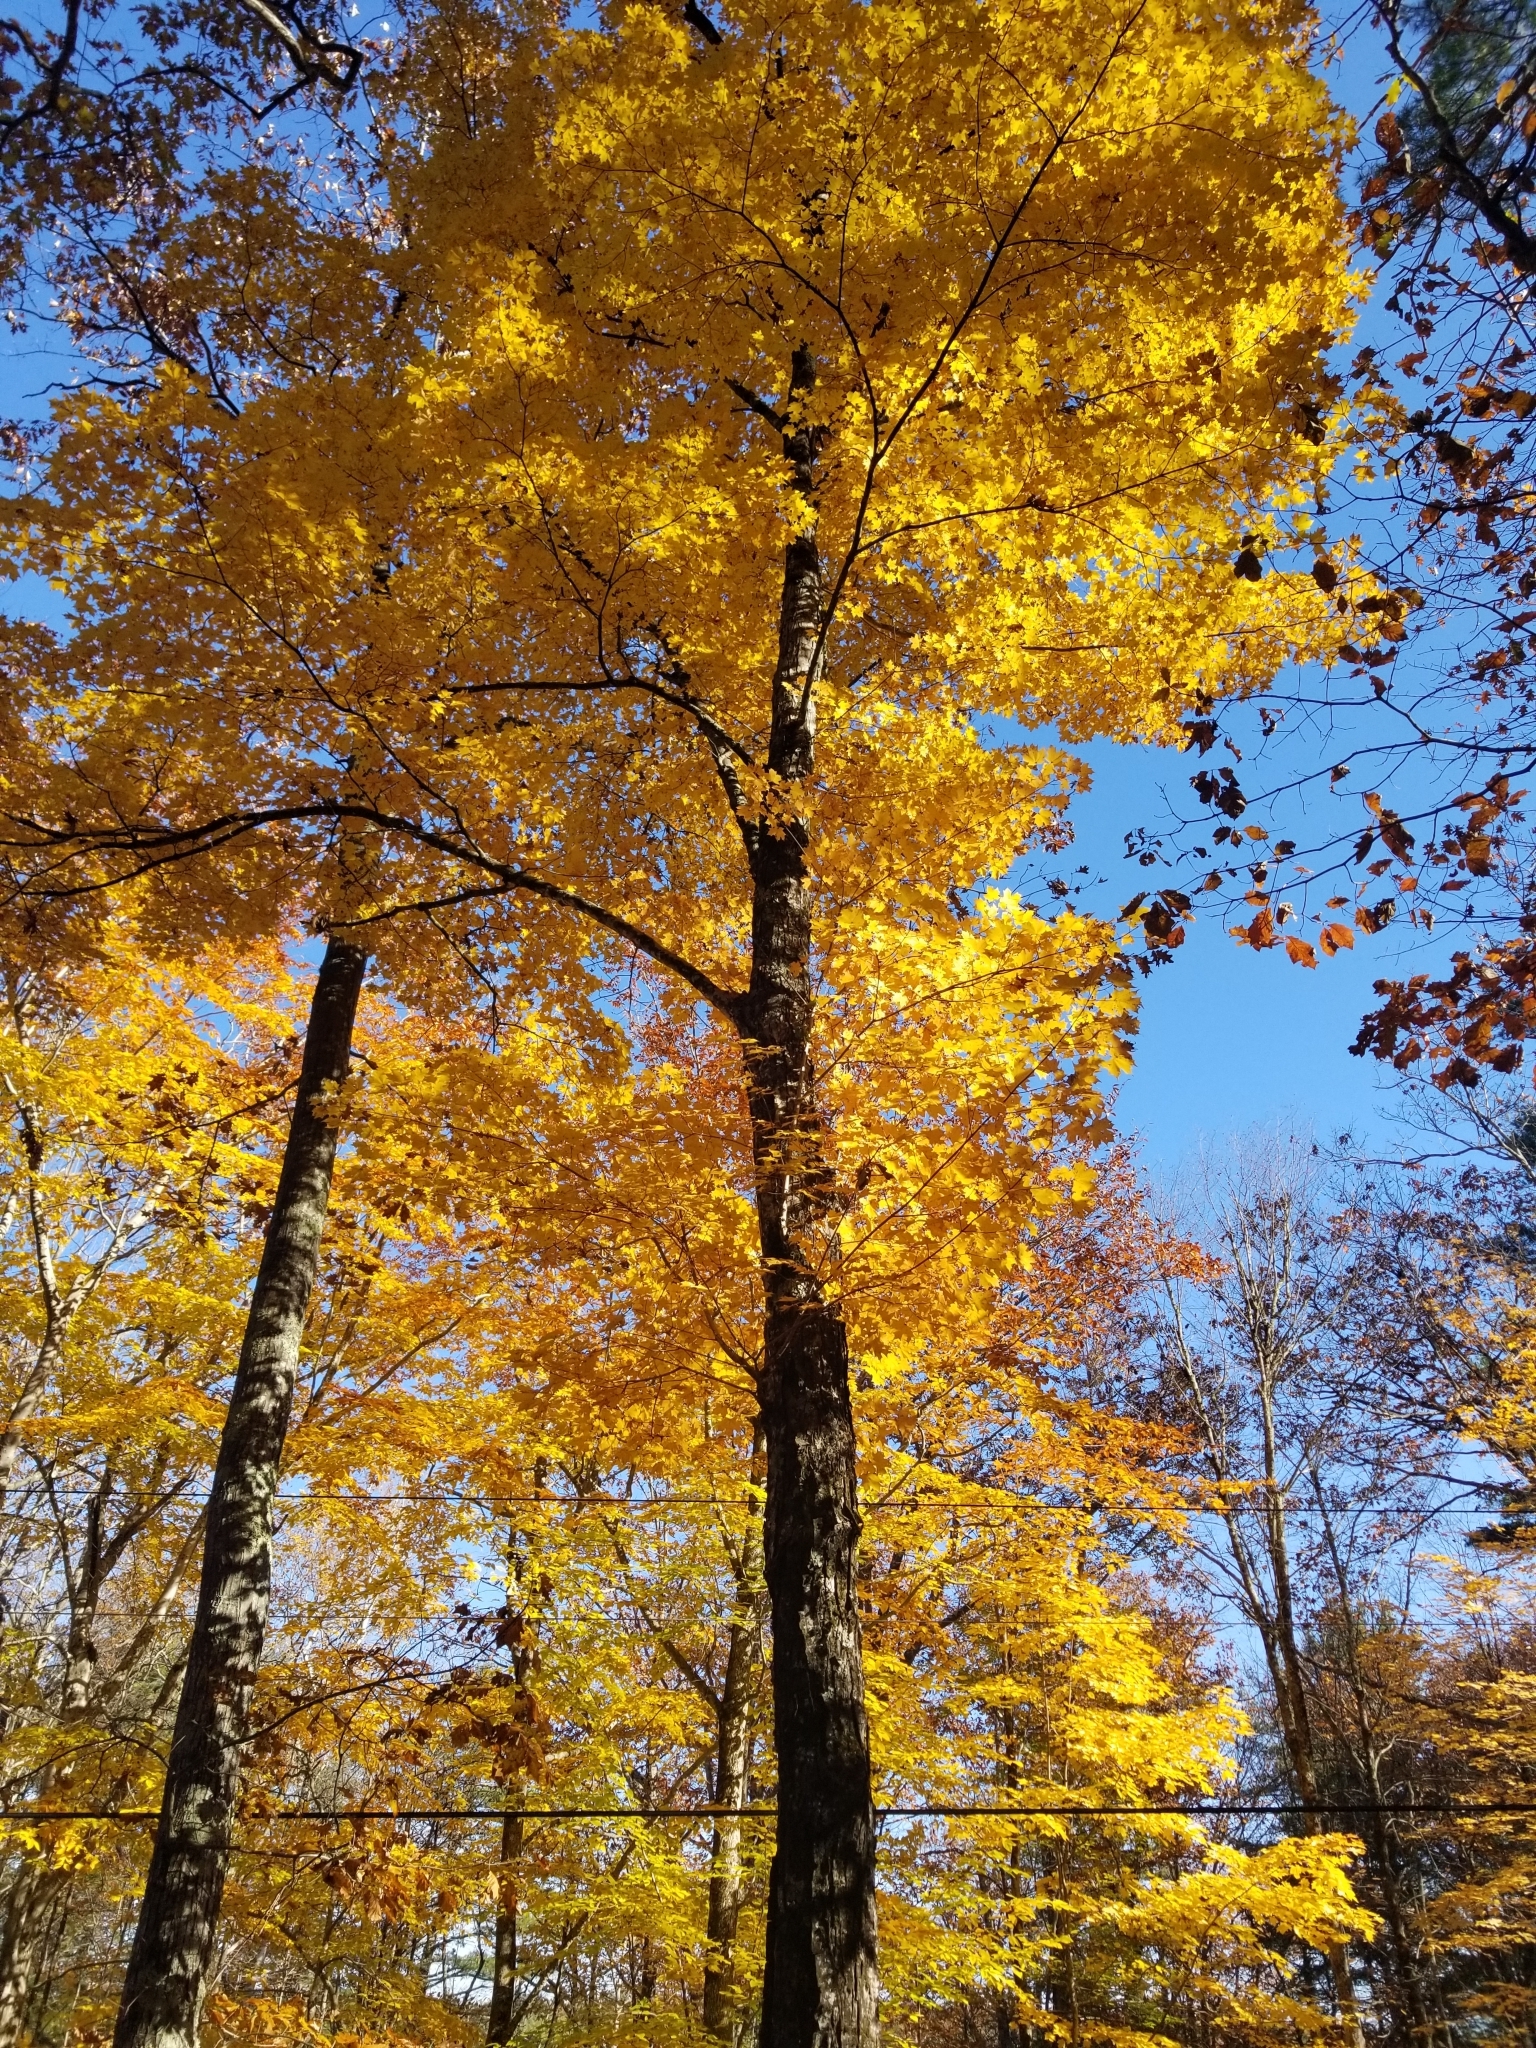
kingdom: Plantae
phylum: Tracheophyta
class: Magnoliopsida
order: Sapindales
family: Sapindaceae
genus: Acer
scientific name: Acer saccharum
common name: Sugar maple
